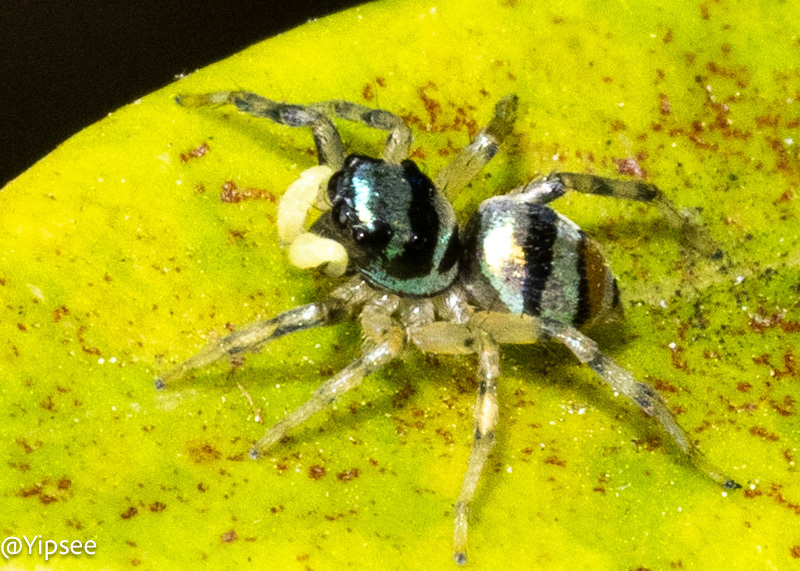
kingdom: Animalia
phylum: Arthropoda
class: Arachnida
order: Araneae
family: Salticidae
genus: Phintella
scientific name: Phintella vittata
